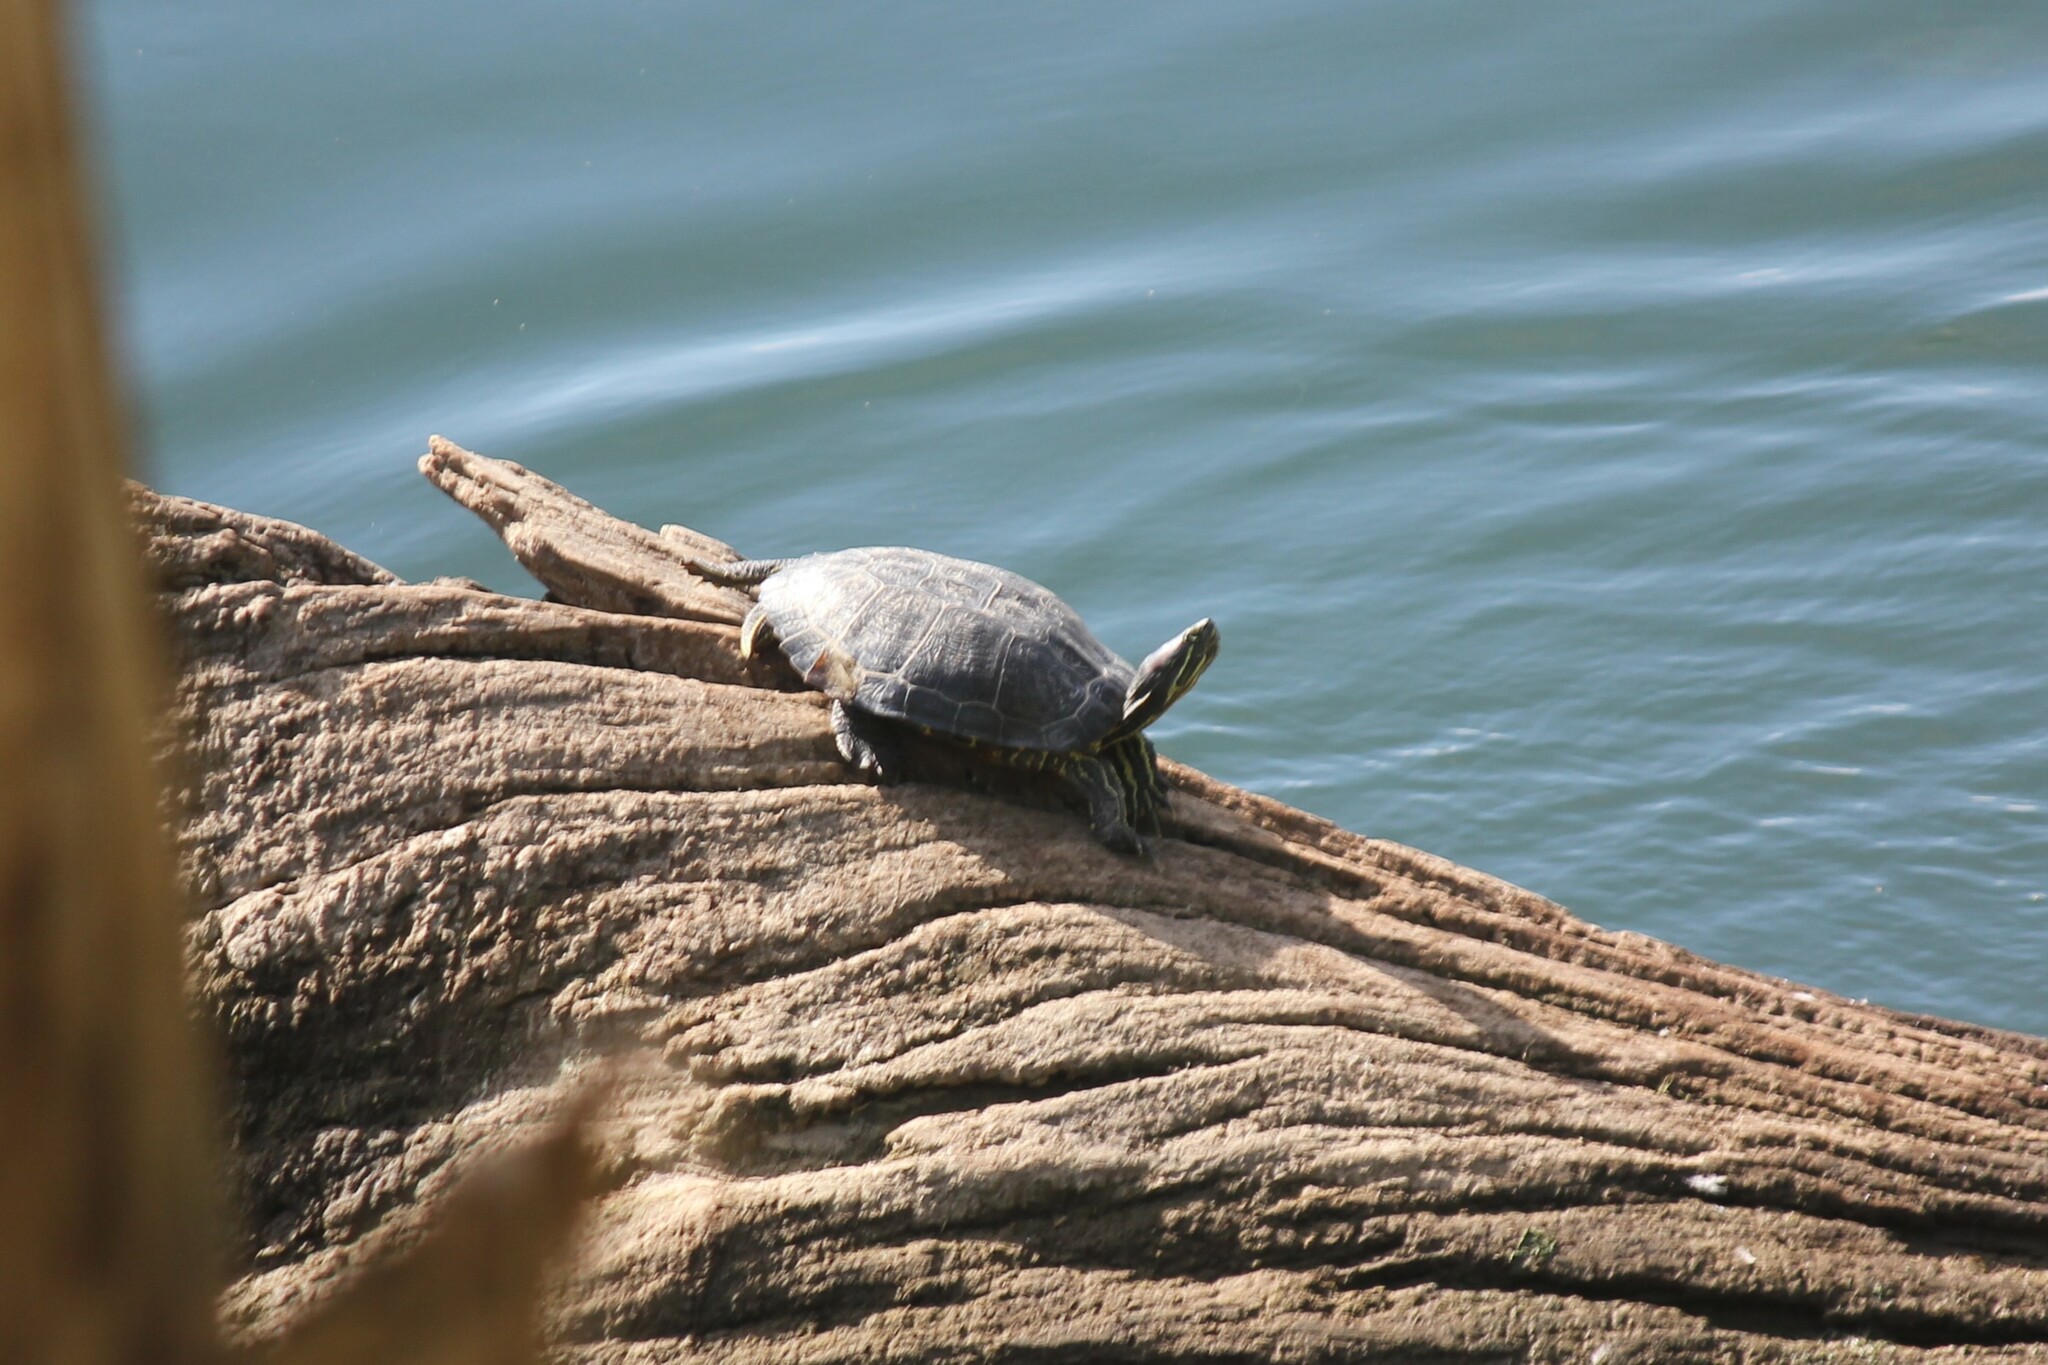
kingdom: Animalia
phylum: Chordata
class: Testudines
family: Emydidae
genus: Trachemys
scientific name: Trachemys scripta
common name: Slider
